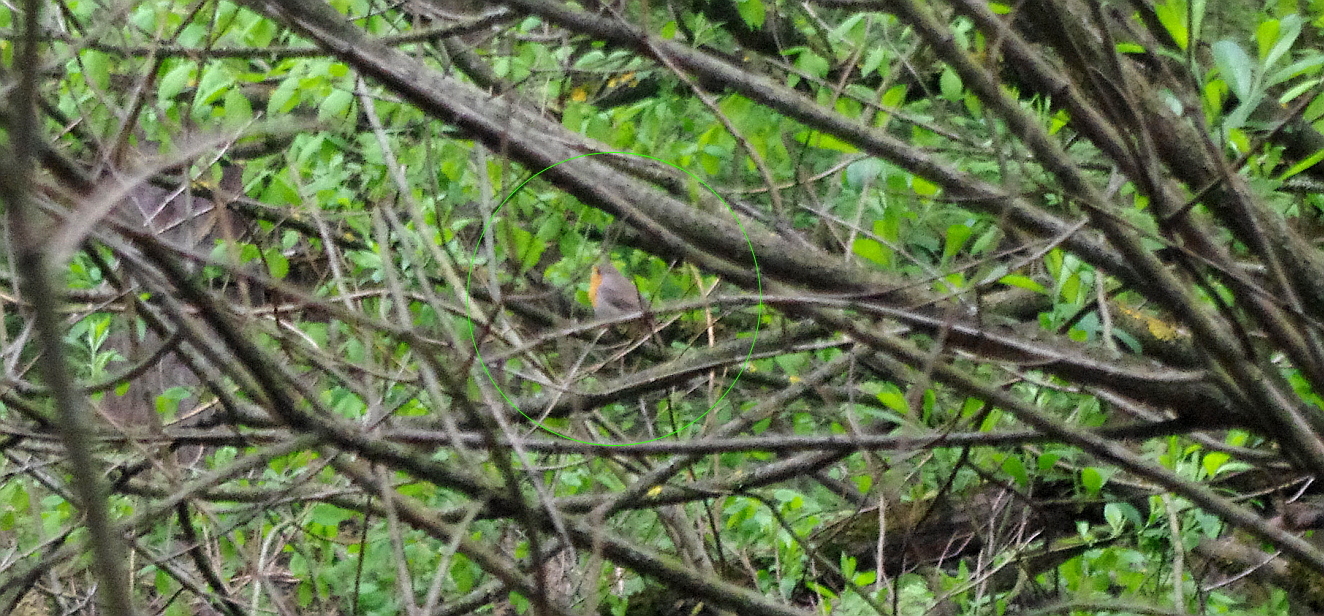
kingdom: Animalia
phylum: Chordata
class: Aves
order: Passeriformes
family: Muscicapidae
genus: Erithacus
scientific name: Erithacus rubecula
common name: European robin
